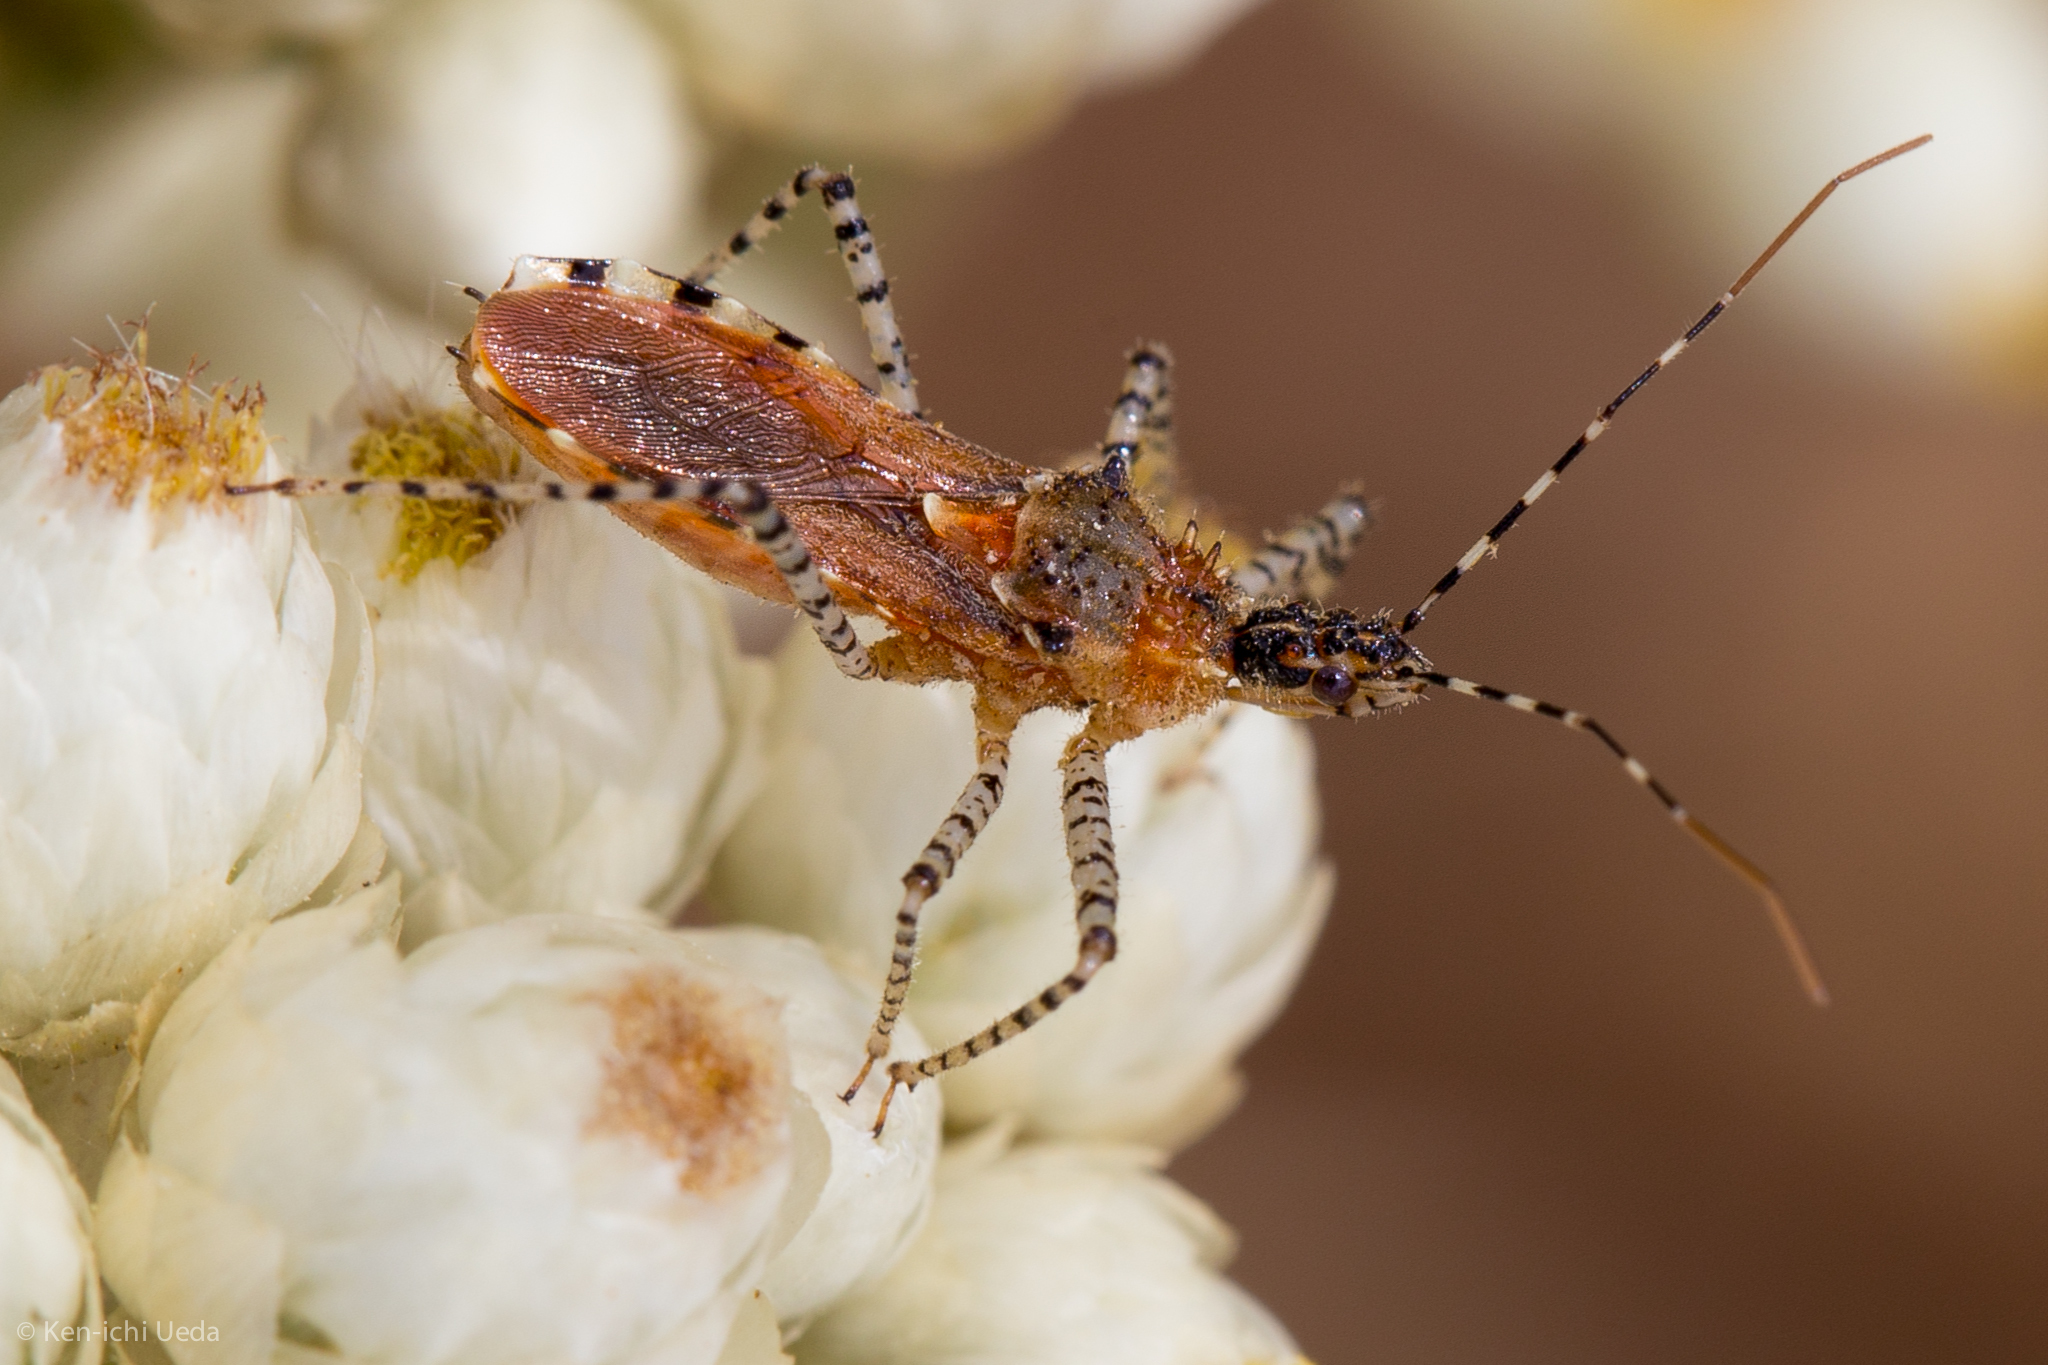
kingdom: Animalia
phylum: Arthropoda
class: Insecta
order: Hemiptera
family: Reduviidae
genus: Pselliopus
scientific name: Pselliopus spinicollis
